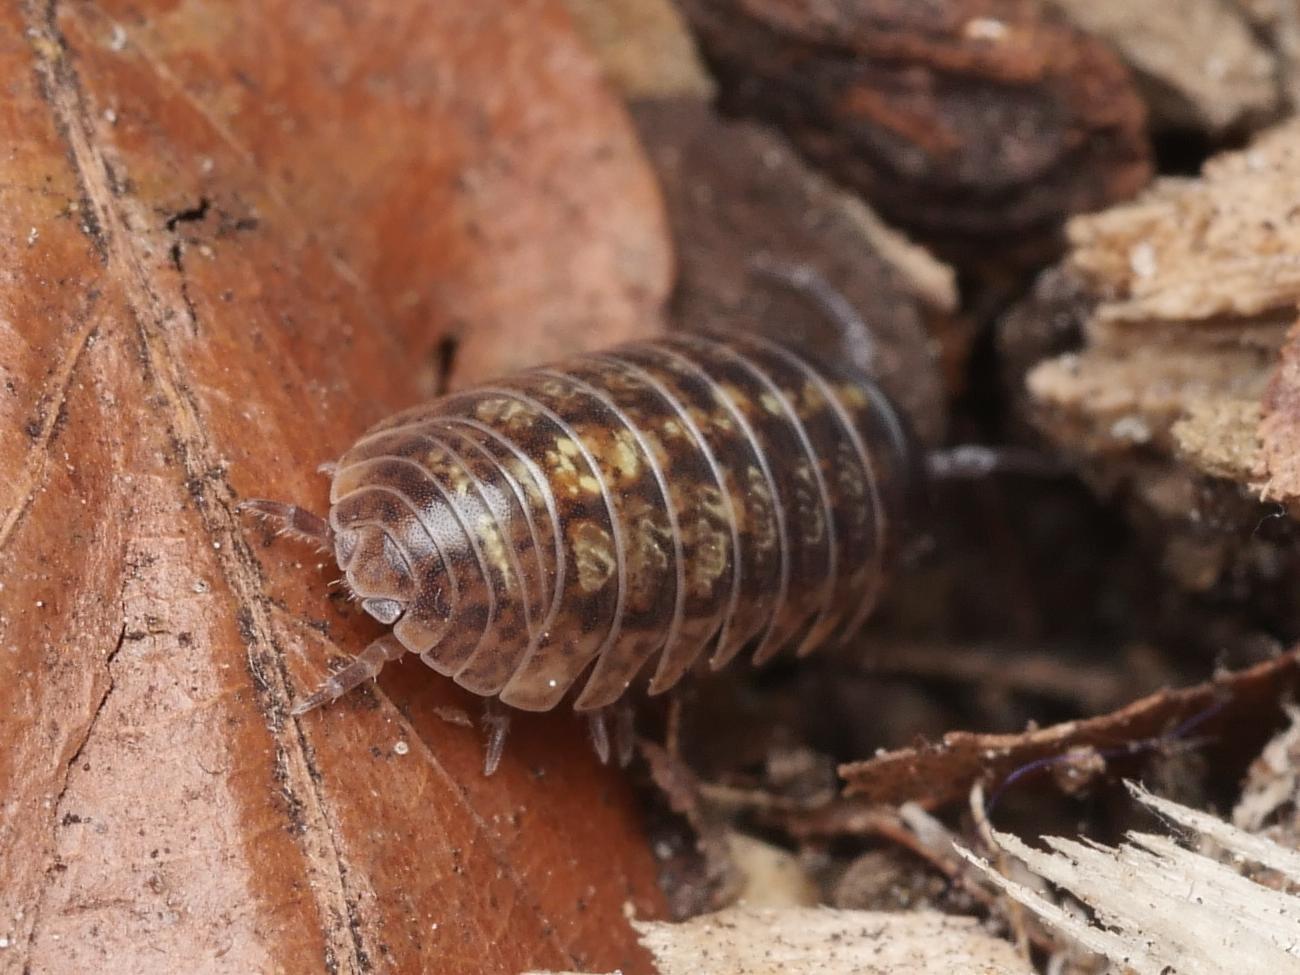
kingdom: Animalia
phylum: Arthropoda
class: Malacostraca
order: Isopoda
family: Armadillidiidae
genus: Armadillidium
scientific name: Armadillidium vulgare
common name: Common pill woodlouse
